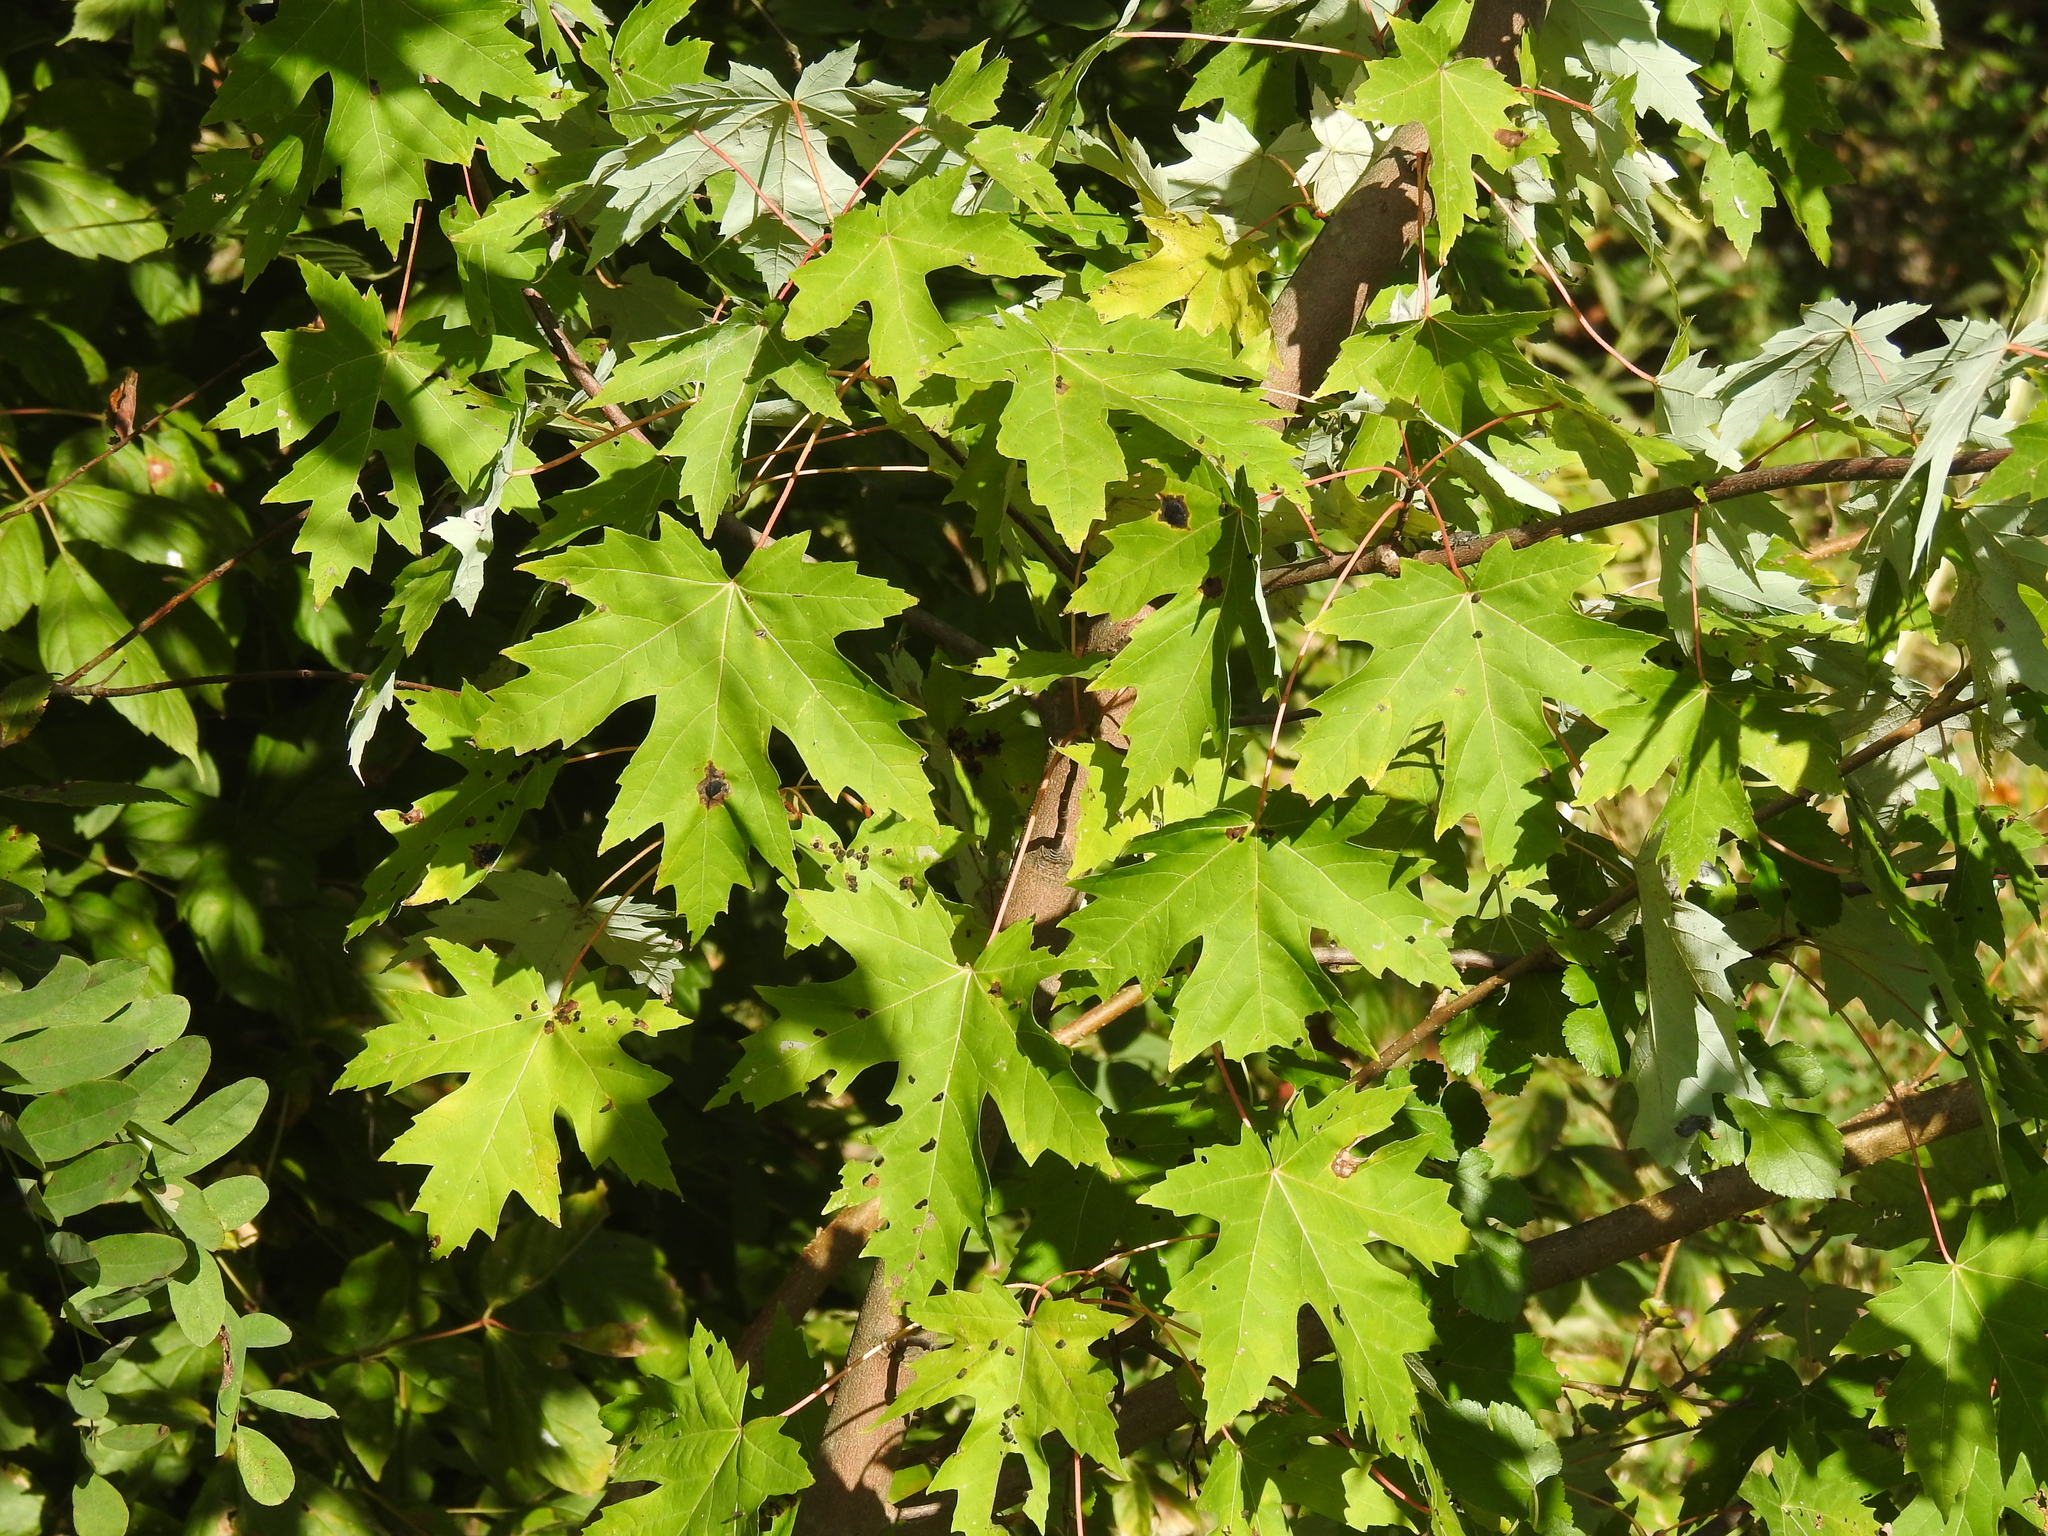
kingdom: Plantae
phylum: Tracheophyta
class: Magnoliopsida
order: Sapindales
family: Sapindaceae
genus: Acer
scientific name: Acer saccharinum
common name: Silver maple
